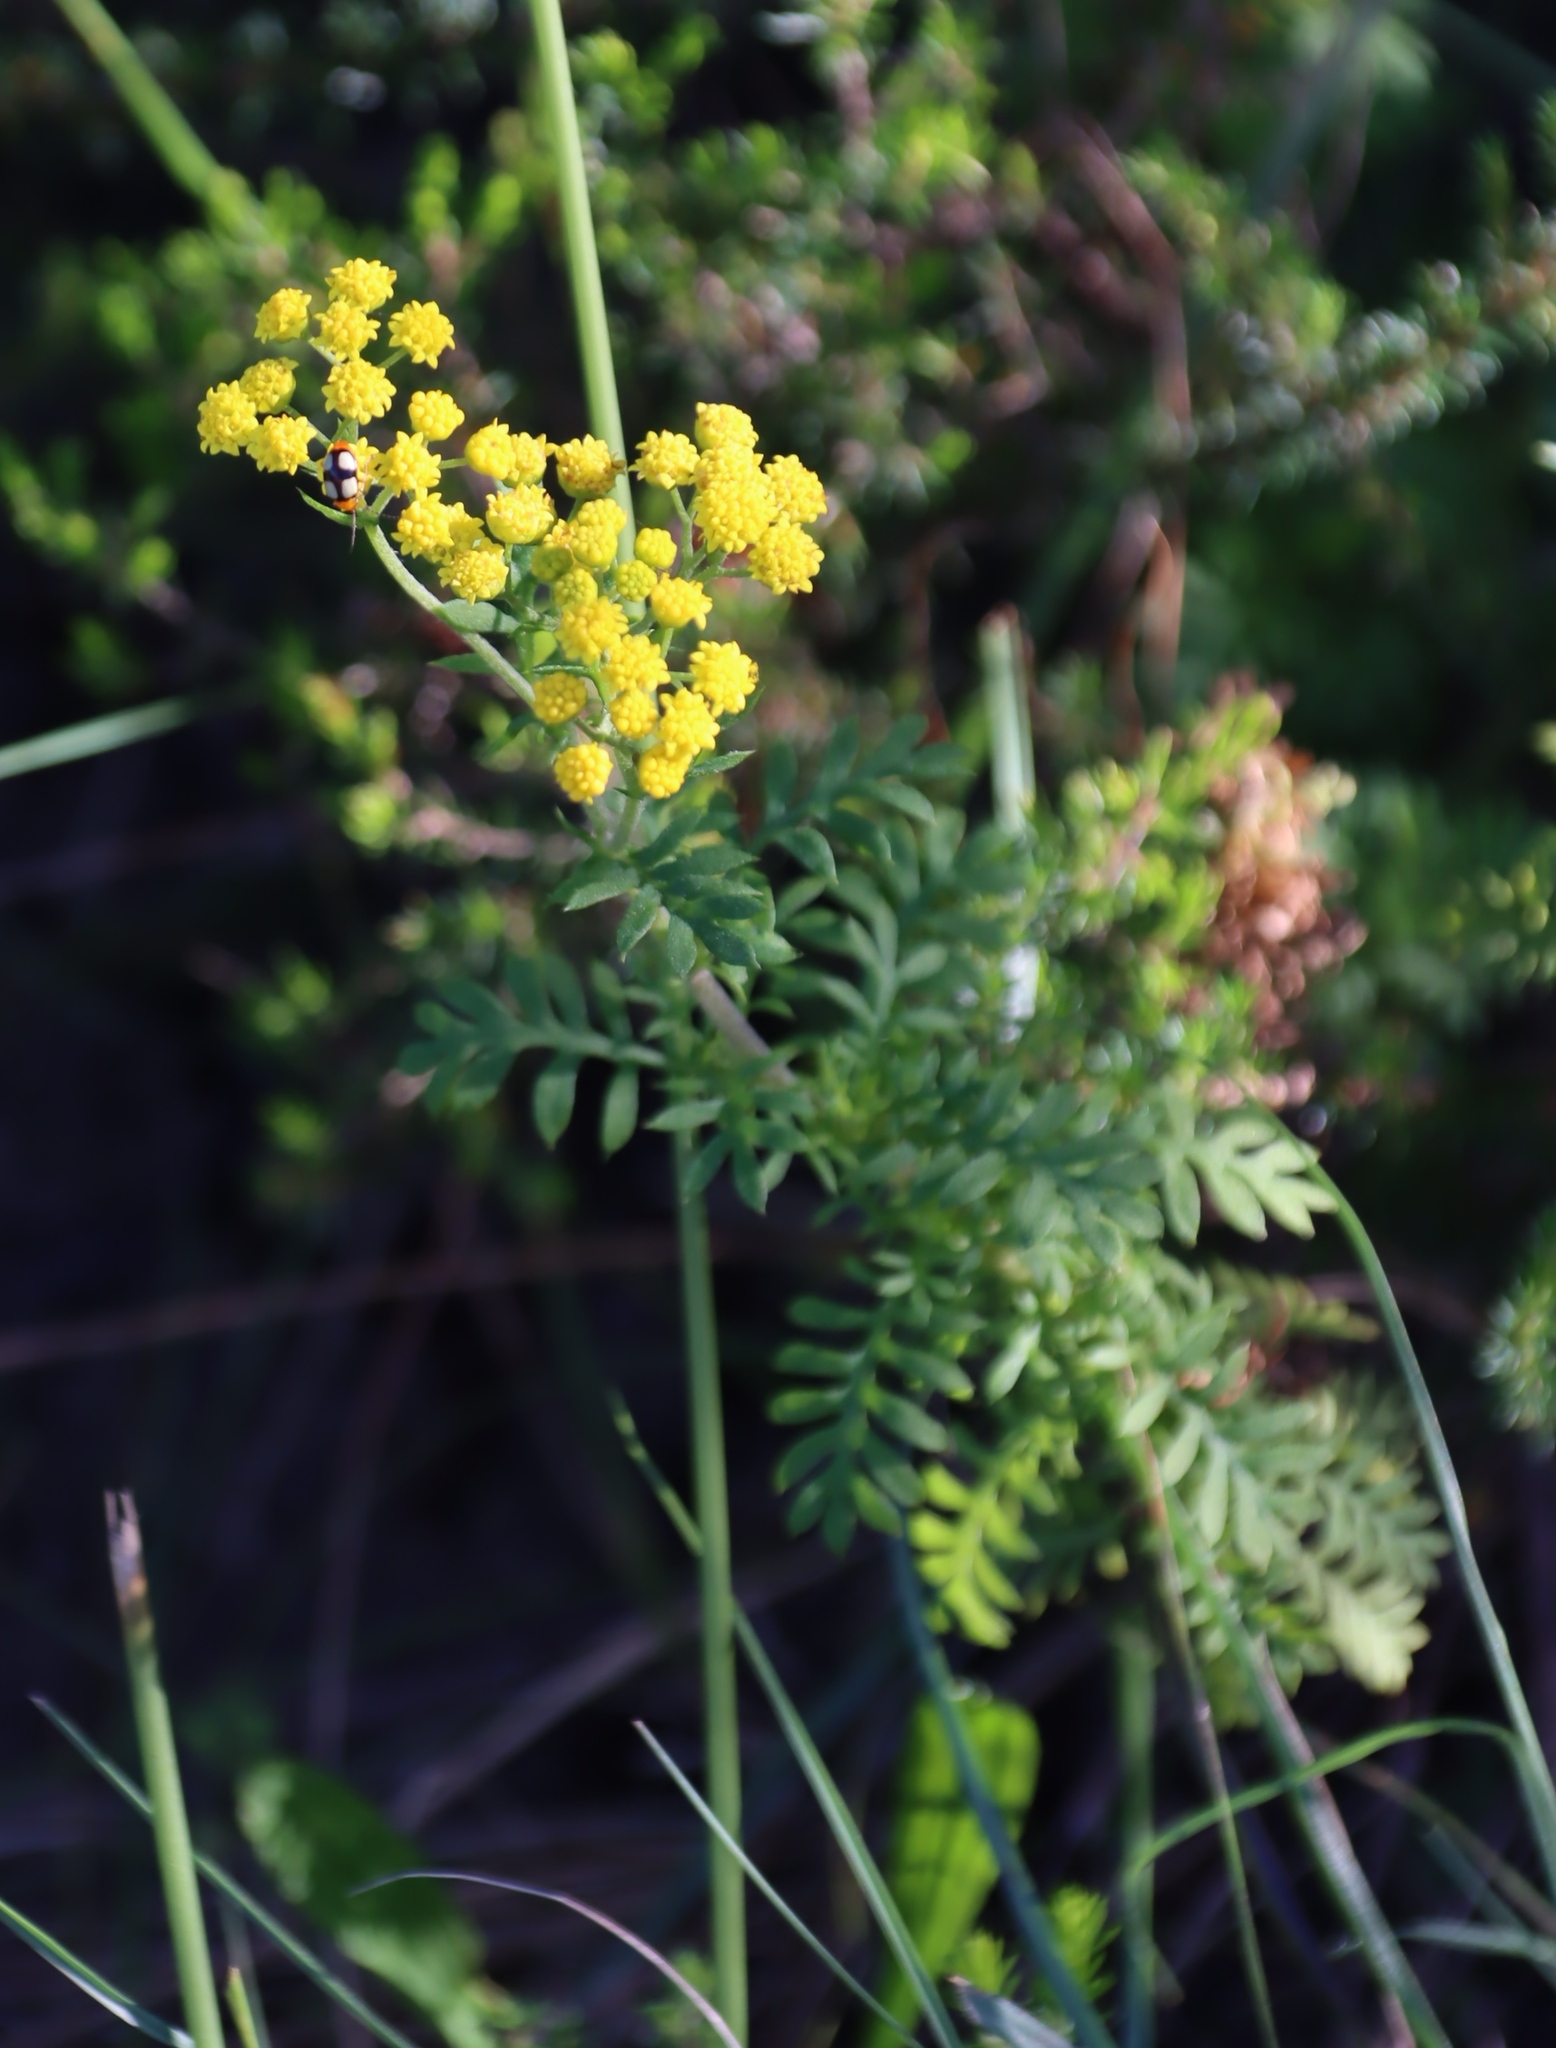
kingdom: Plantae
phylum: Tracheophyta
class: Magnoliopsida
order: Asterales
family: Asteraceae
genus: Hippia
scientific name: Hippia frutescens
